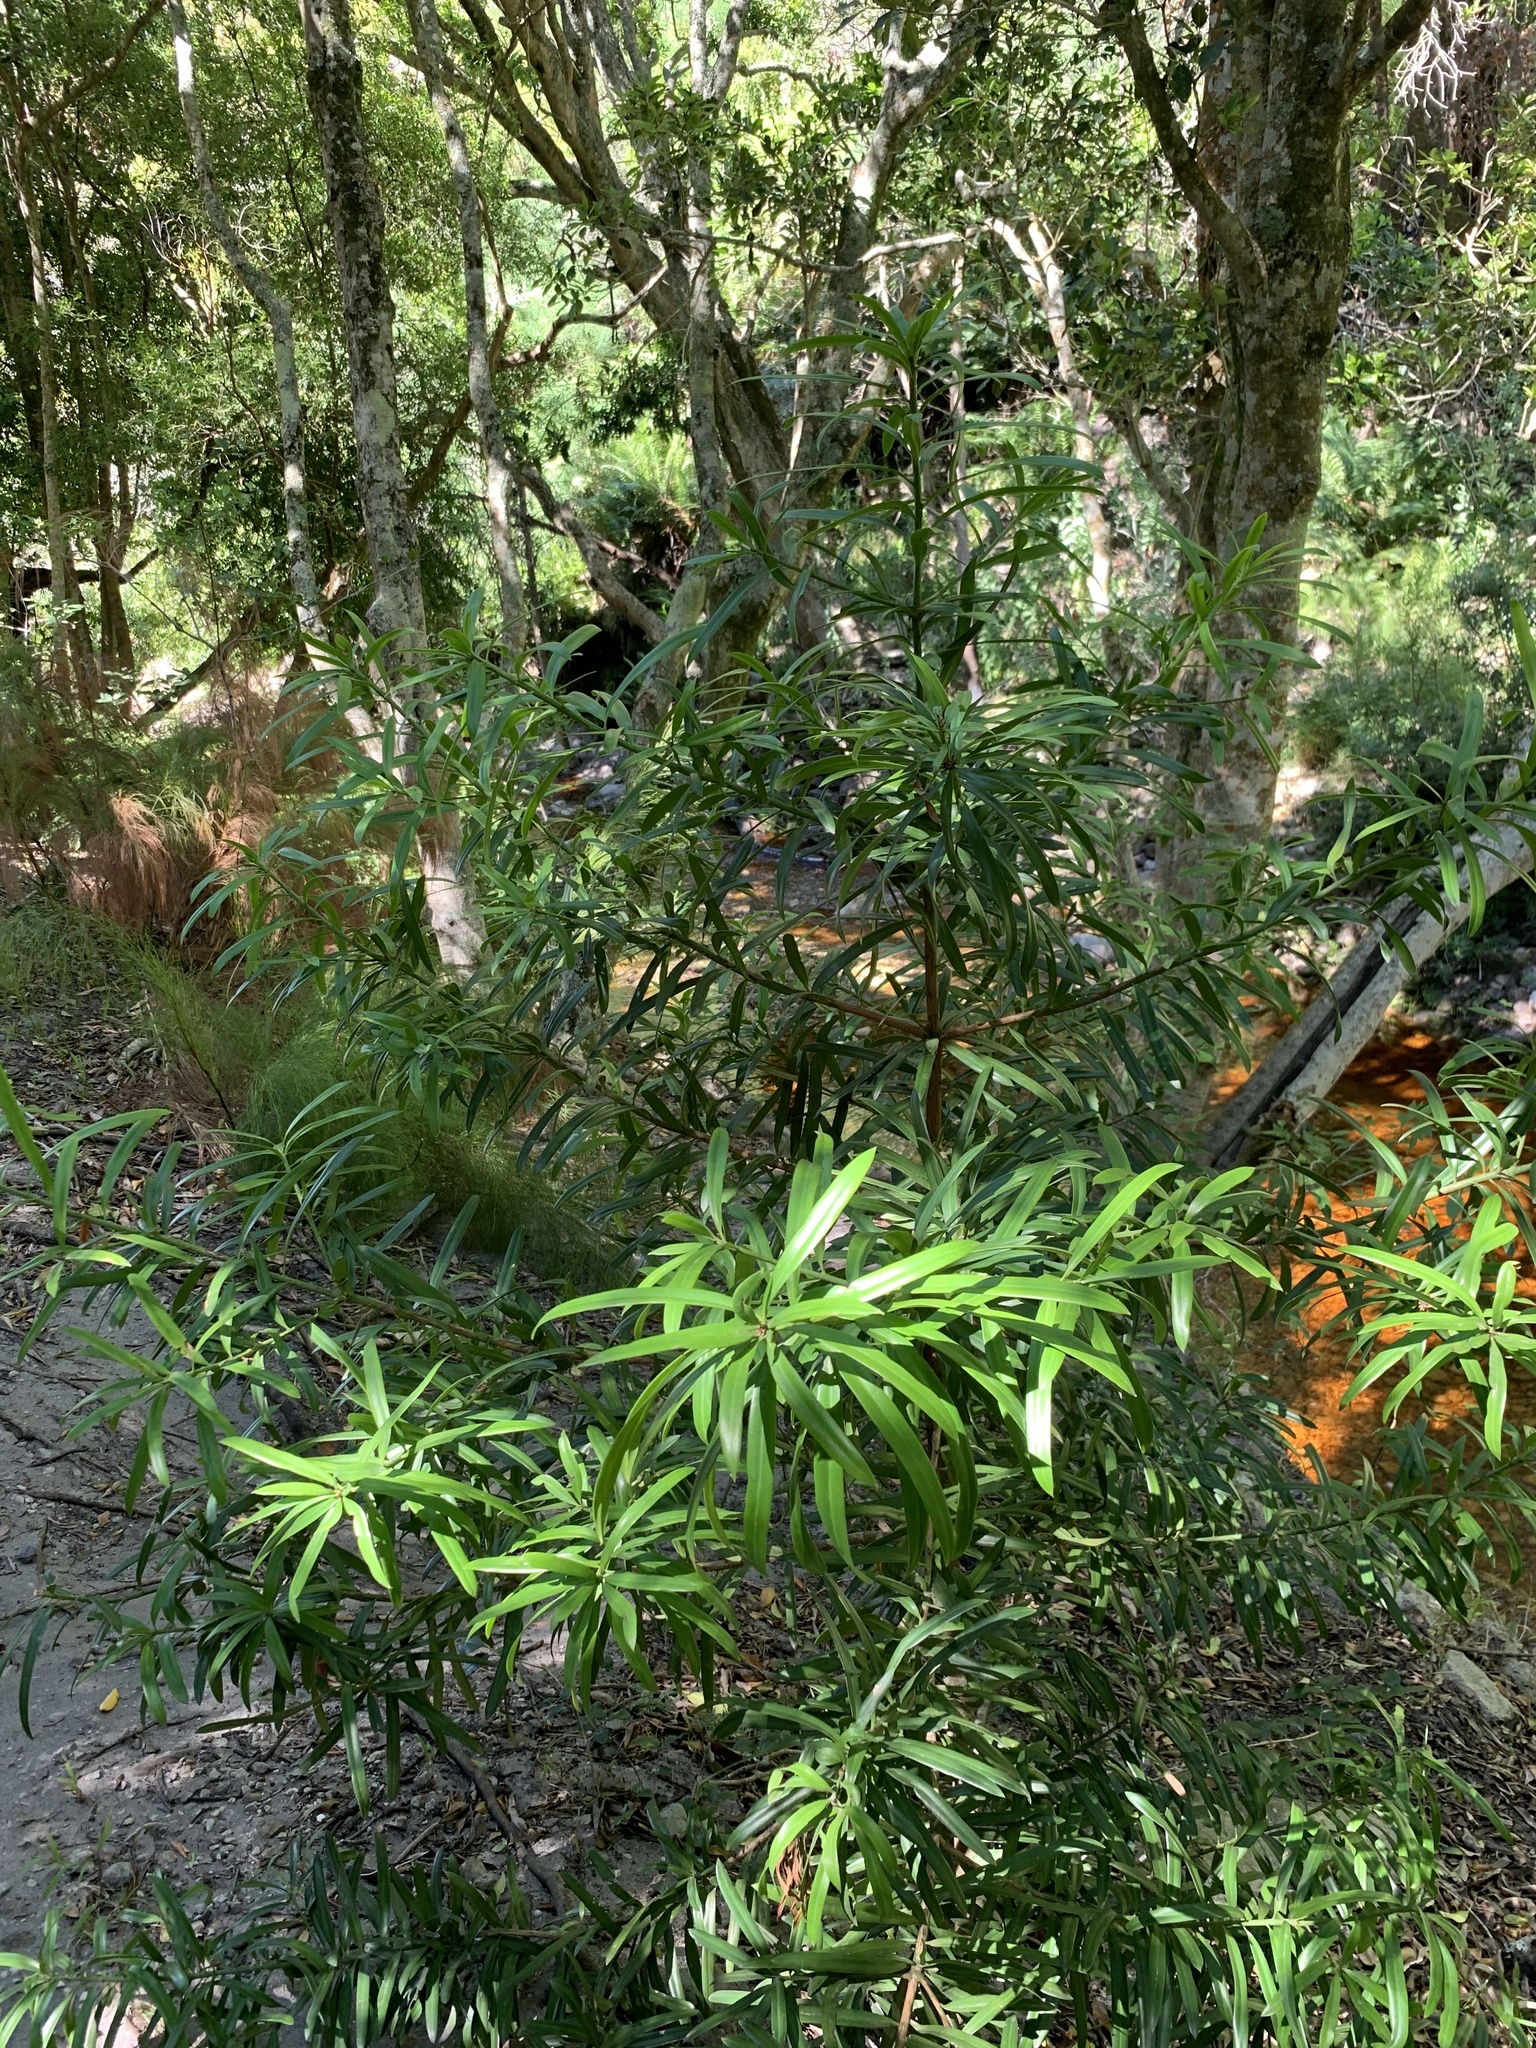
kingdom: Plantae
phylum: Tracheophyta
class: Pinopsida
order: Pinales
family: Podocarpaceae
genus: Podocarpus
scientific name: Podocarpus latifolius
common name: True yellowwood
